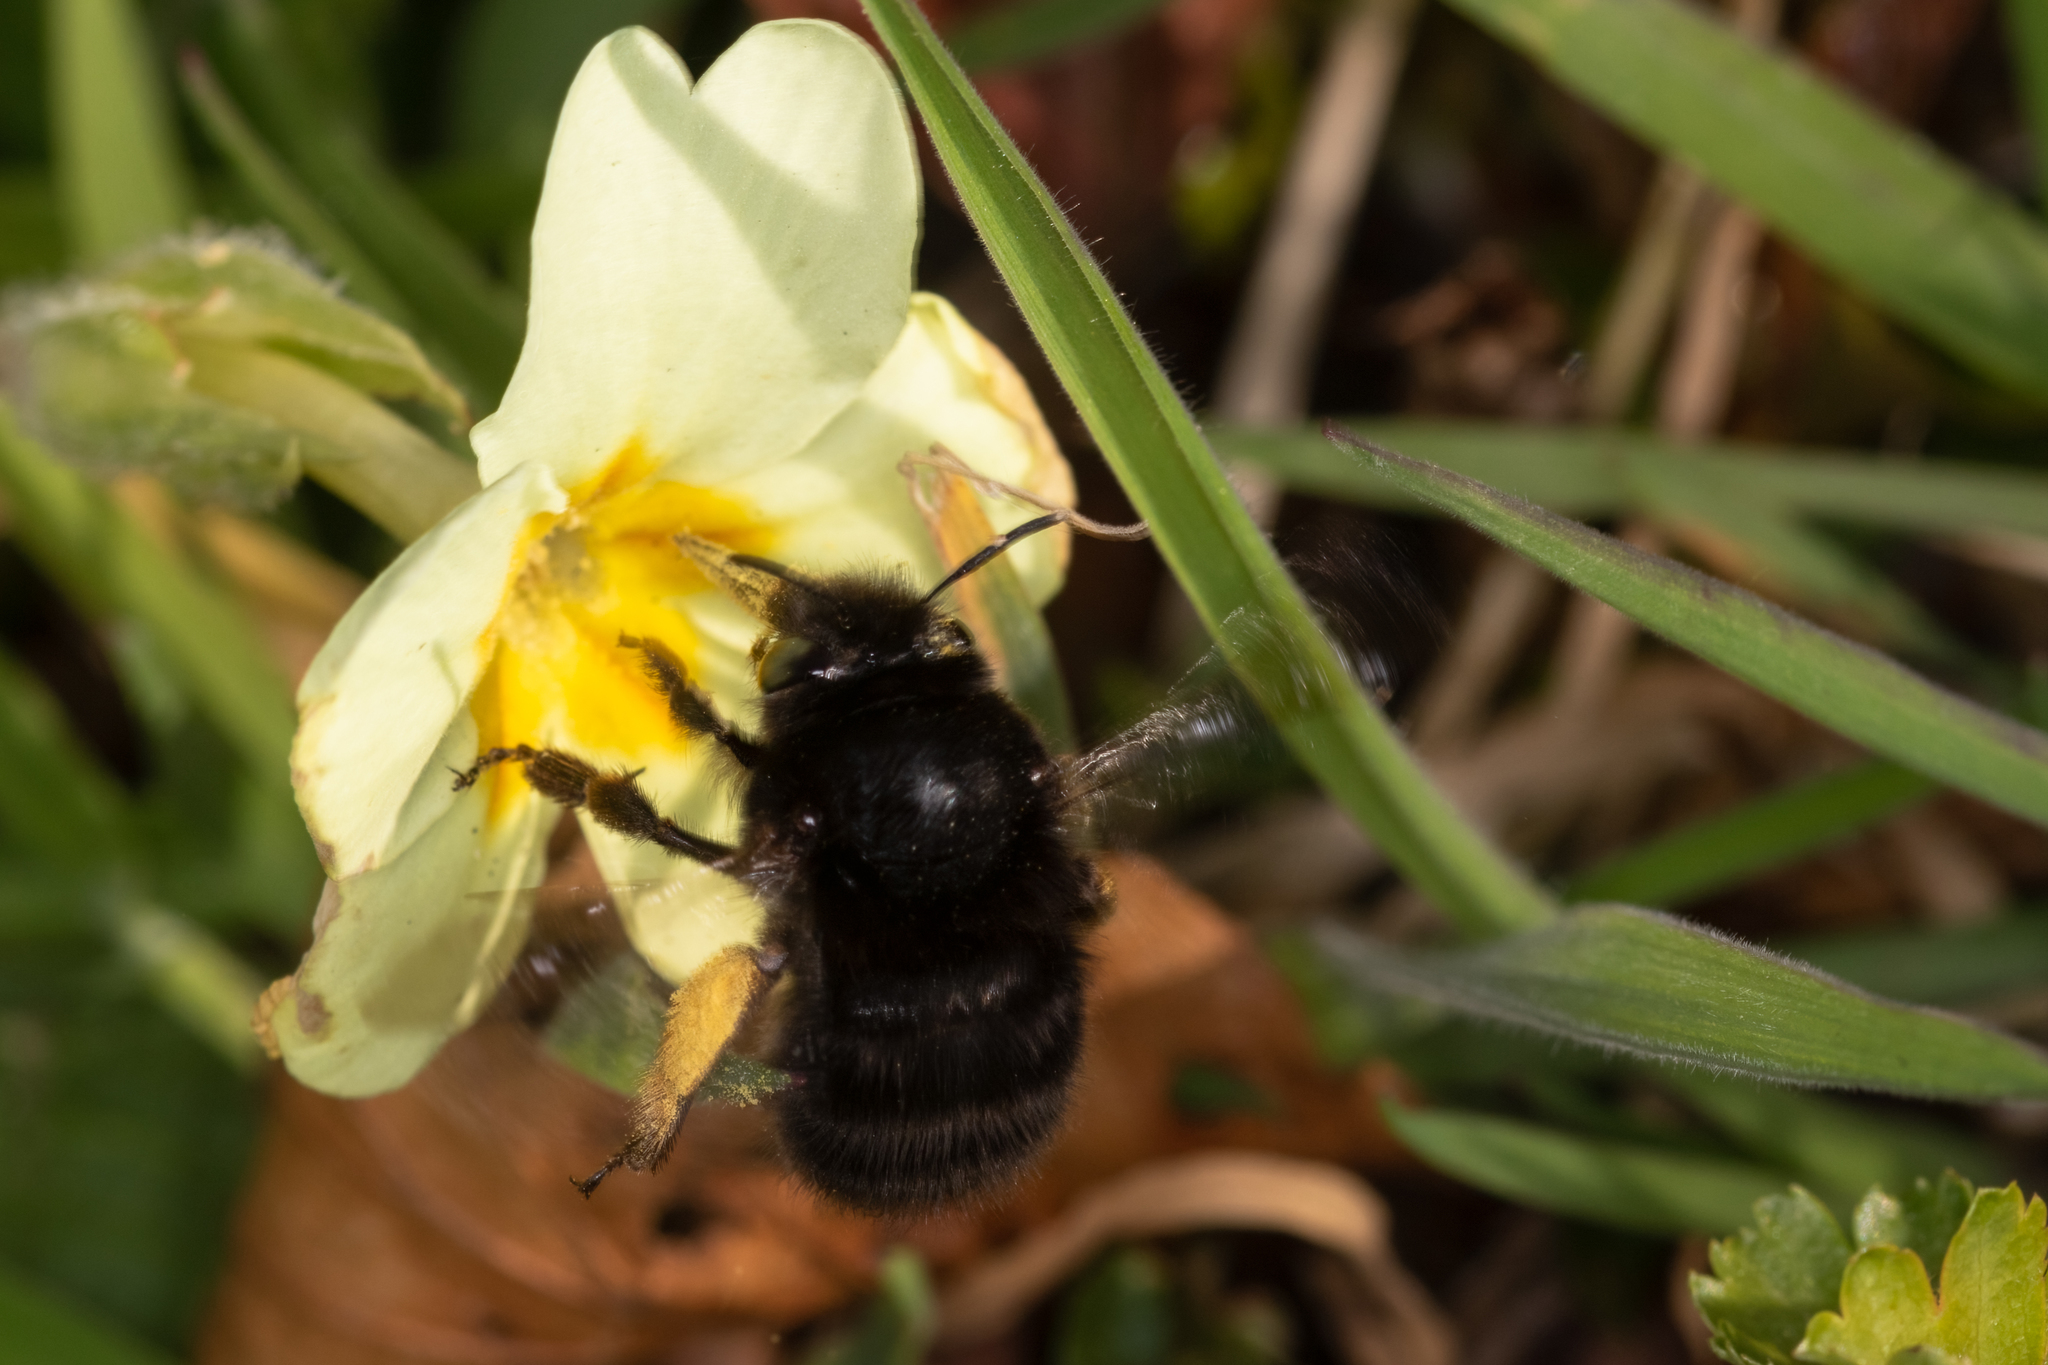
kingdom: Animalia
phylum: Arthropoda
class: Insecta
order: Hymenoptera
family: Apidae
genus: Anthophora
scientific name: Anthophora plumipes
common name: Hairy-footed flower bee
